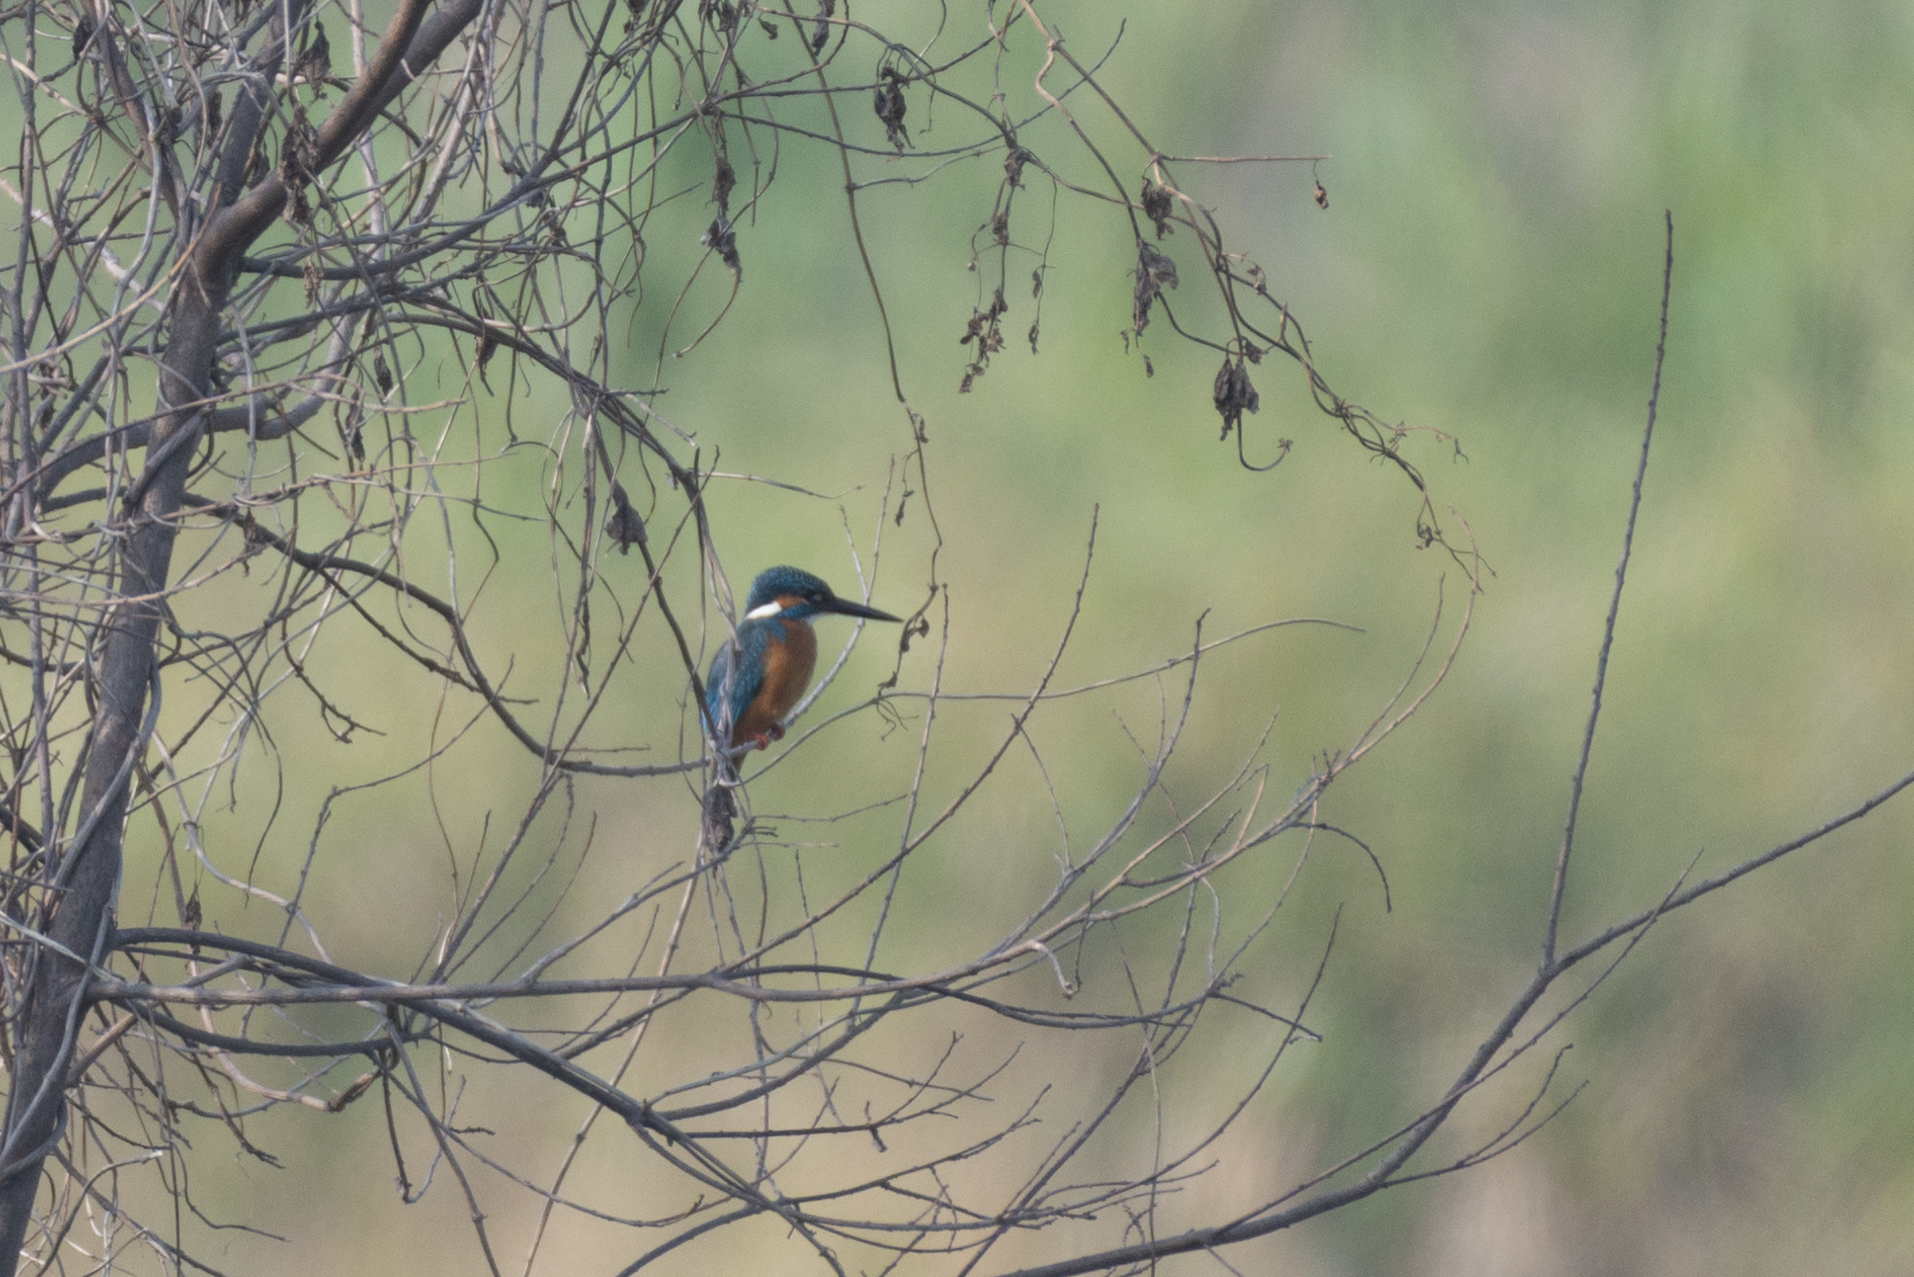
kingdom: Animalia
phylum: Chordata
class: Aves
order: Coraciiformes
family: Alcedinidae
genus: Alcedo
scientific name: Alcedo atthis
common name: Common kingfisher
